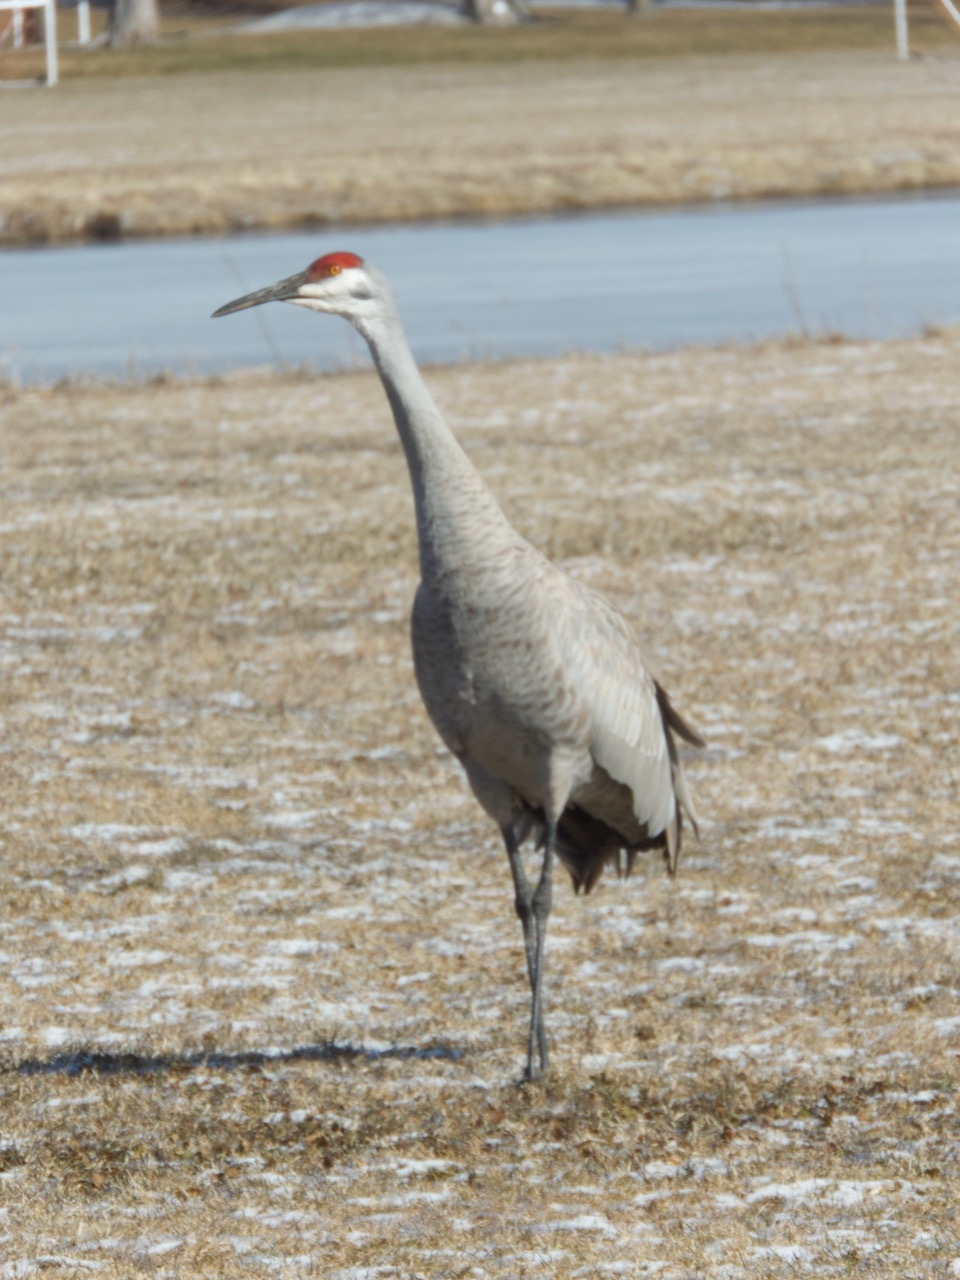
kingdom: Animalia
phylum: Chordata
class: Aves
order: Gruiformes
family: Gruidae
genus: Grus
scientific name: Grus canadensis
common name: Sandhill crane
